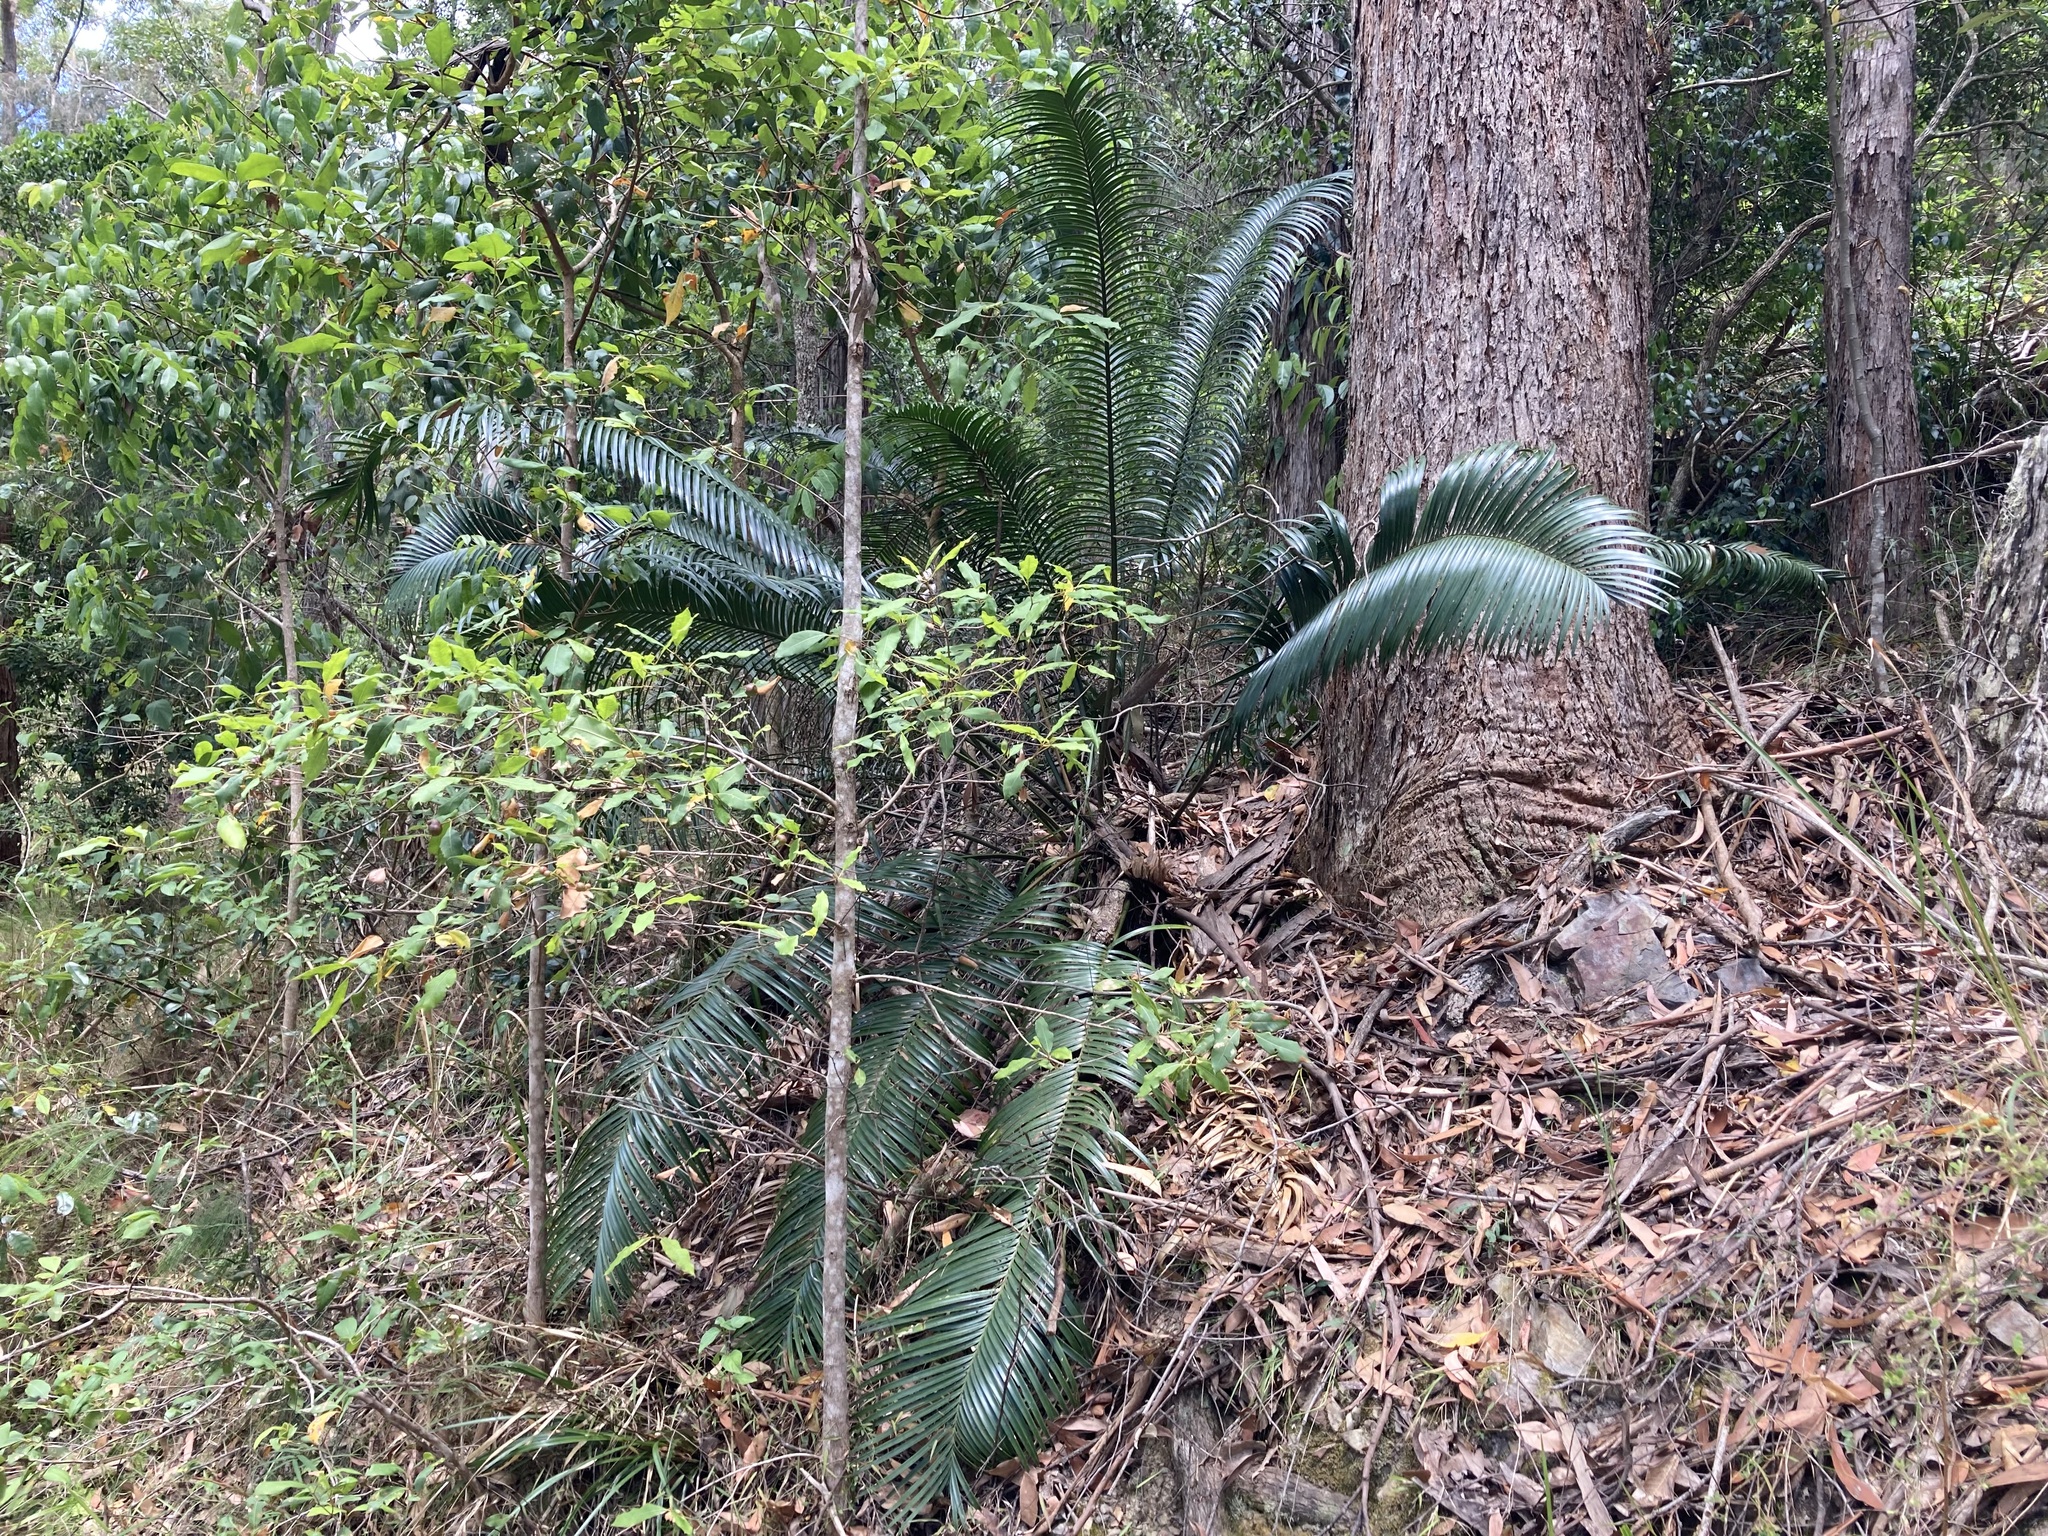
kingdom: Plantae
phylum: Tracheophyta
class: Cycadopsida
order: Cycadales
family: Zamiaceae
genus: Lepidozamia
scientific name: Lepidozamia peroffskyana
